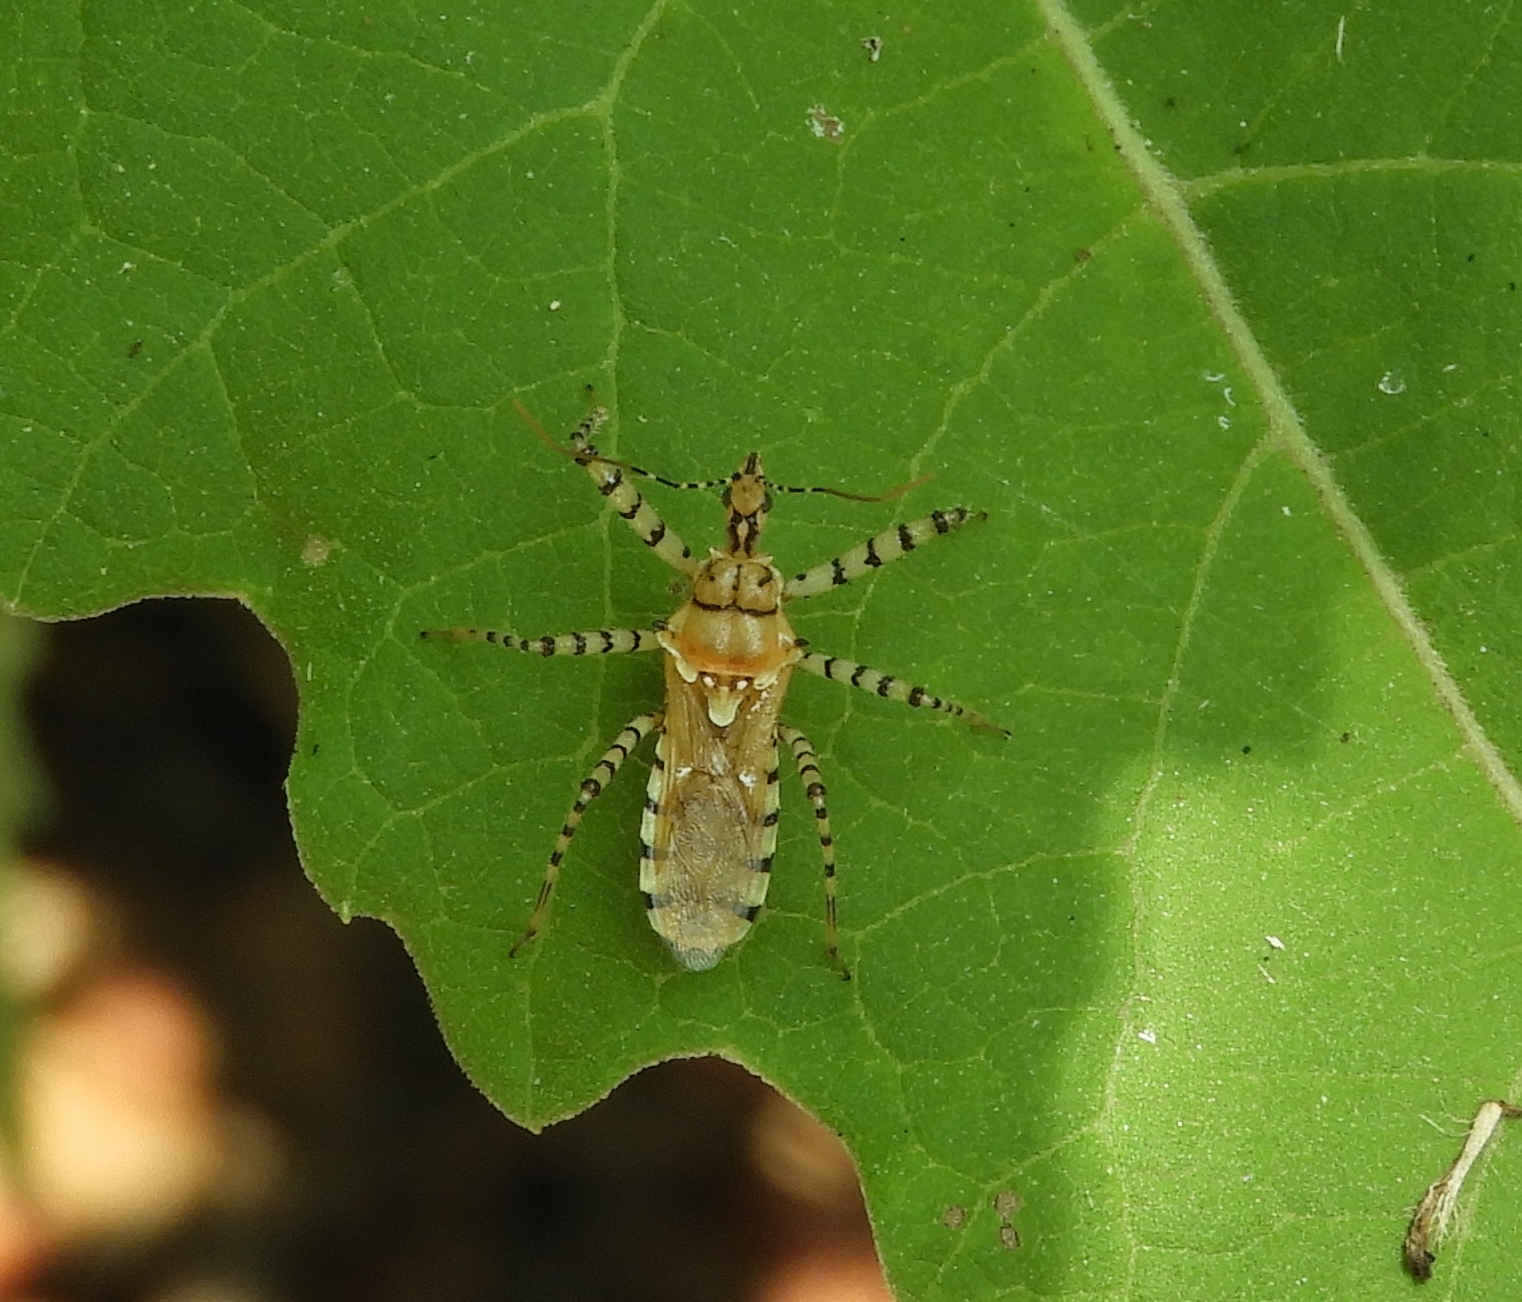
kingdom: Animalia
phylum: Arthropoda
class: Insecta
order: Hemiptera
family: Reduviidae
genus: Pselliopus
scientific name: Pselliopus
